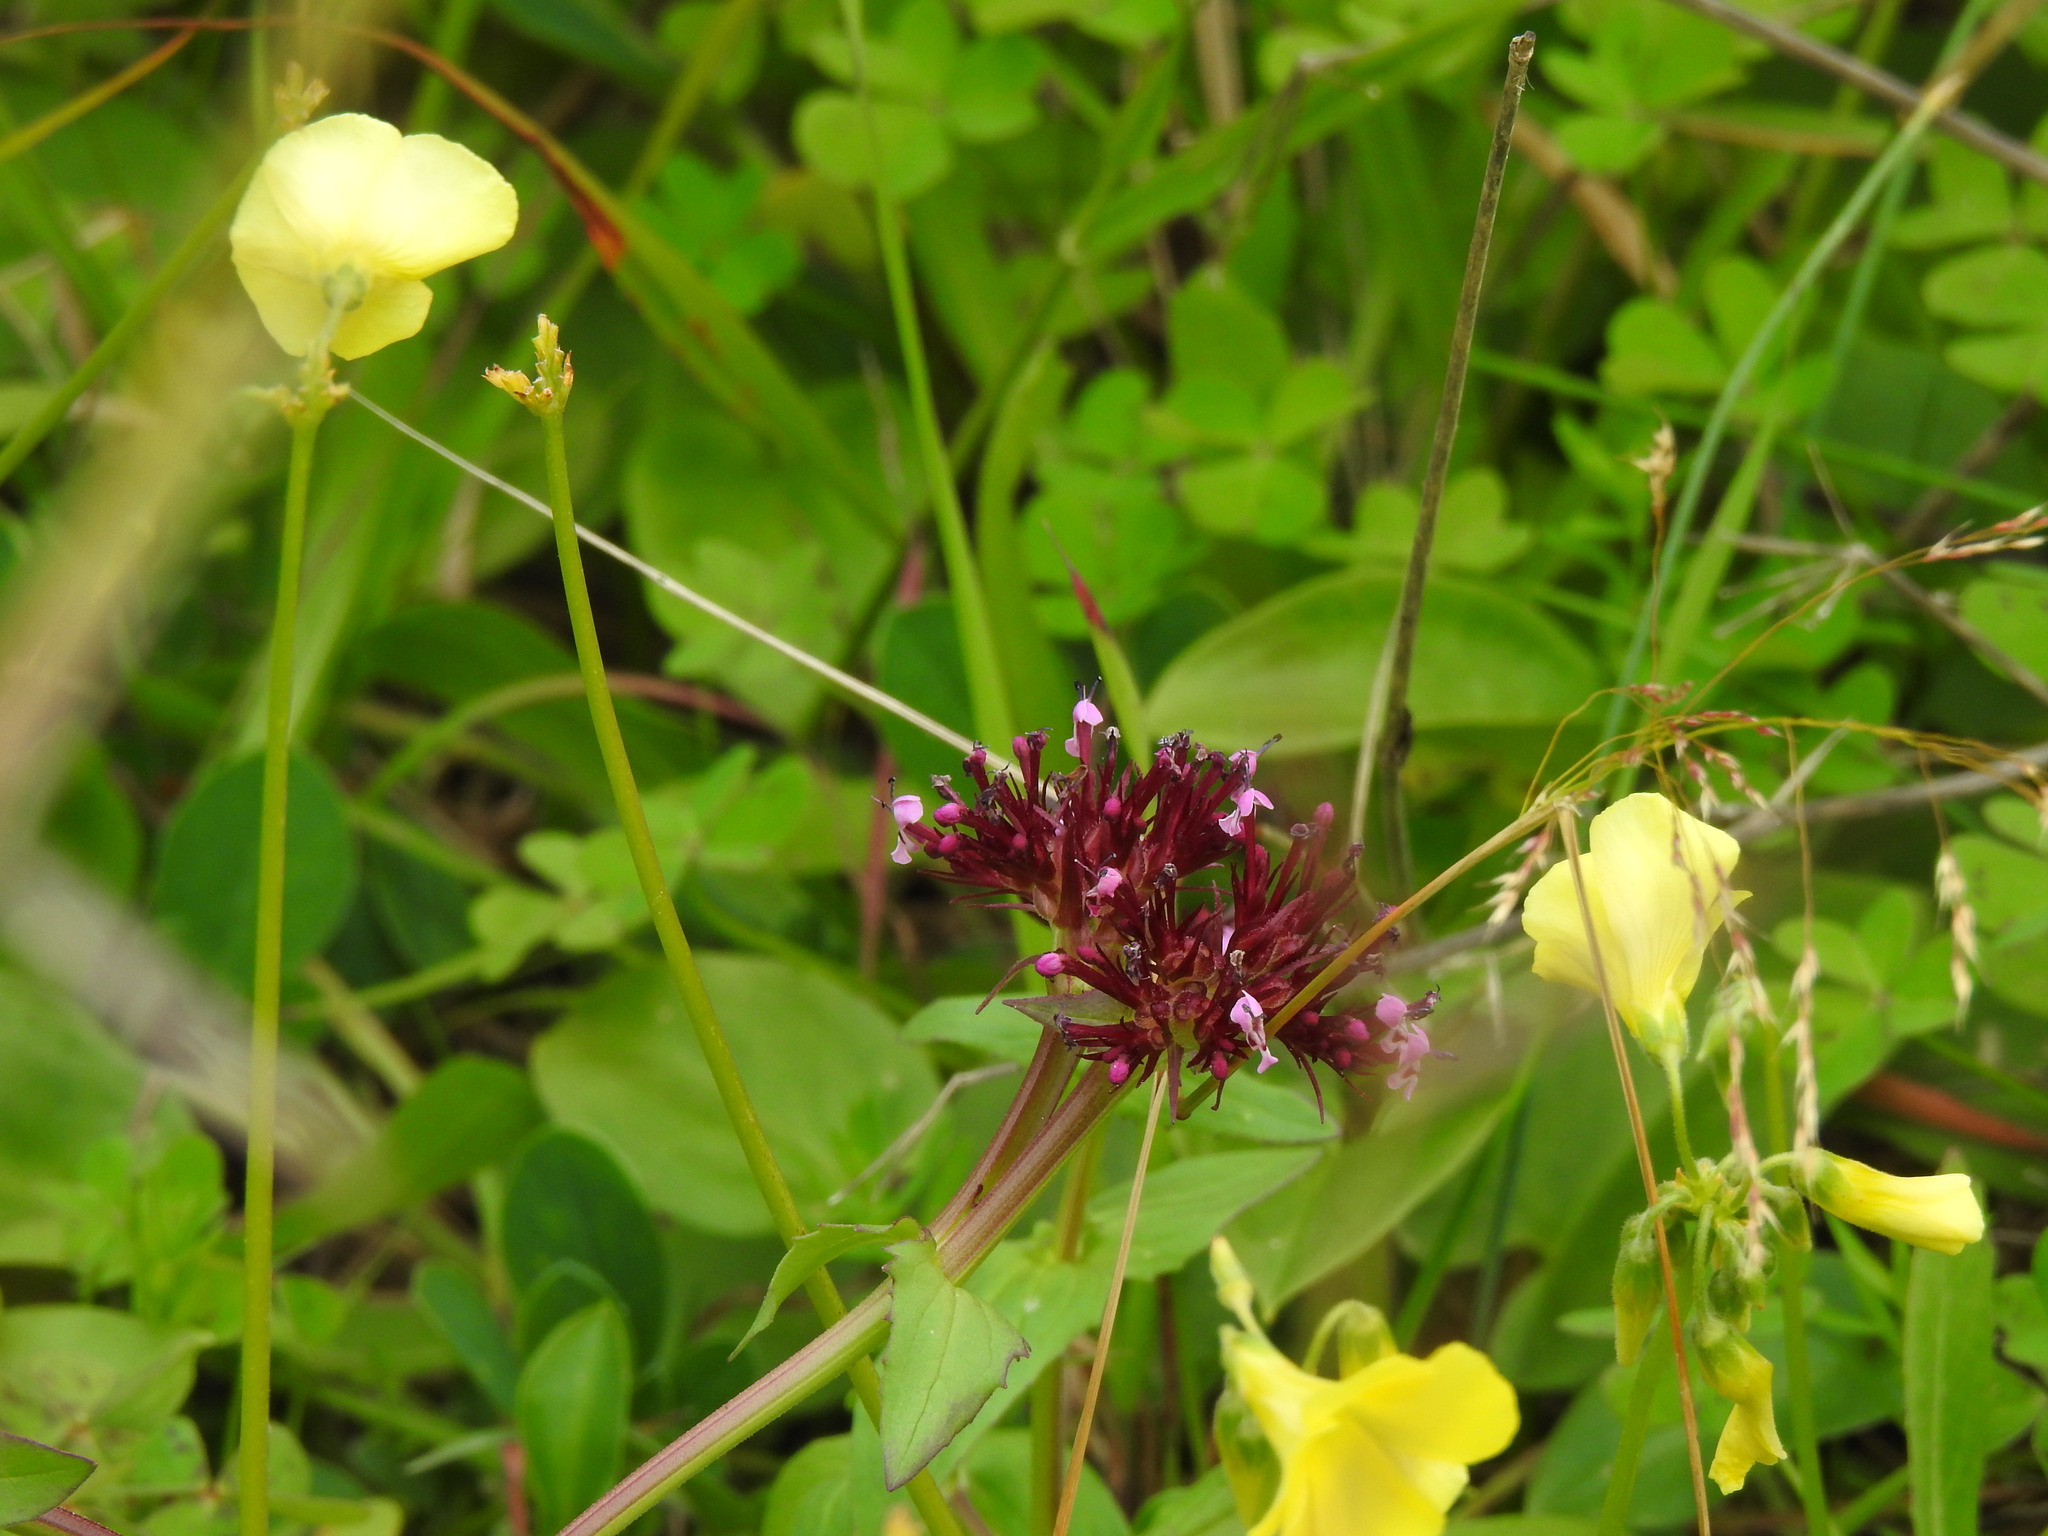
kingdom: Plantae
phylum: Tracheophyta
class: Magnoliopsida
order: Dipsacales
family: Caprifoliaceae
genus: Fedia
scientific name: Fedia cornucopiae
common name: Horn-of-plenty
